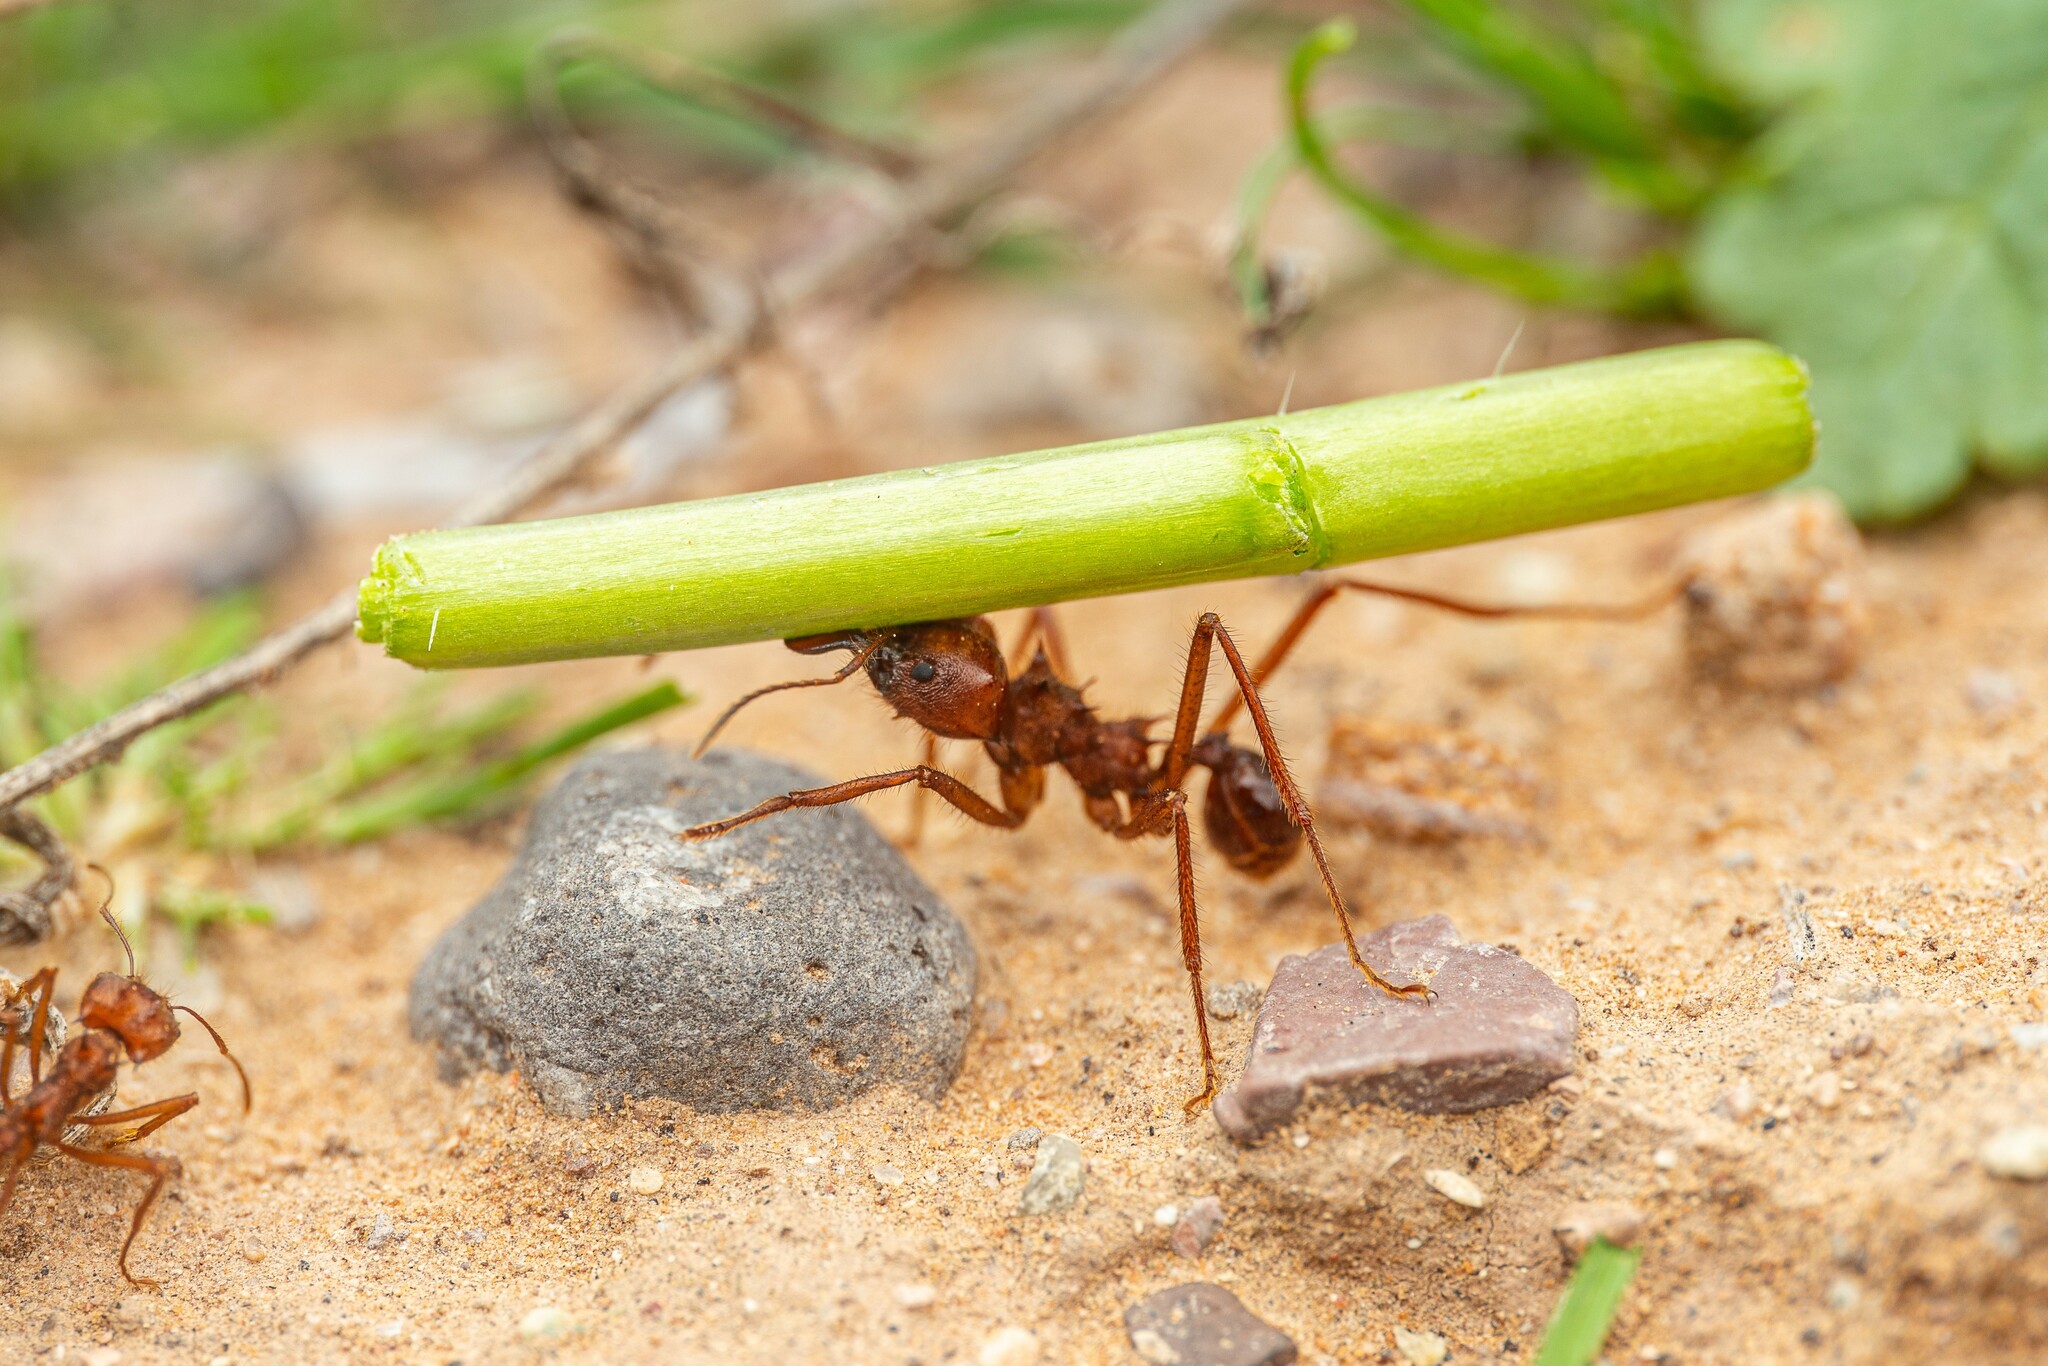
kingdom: Animalia
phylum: Arthropoda
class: Insecta
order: Hymenoptera
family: Formicidae
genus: Atta
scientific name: Atta mexicana
